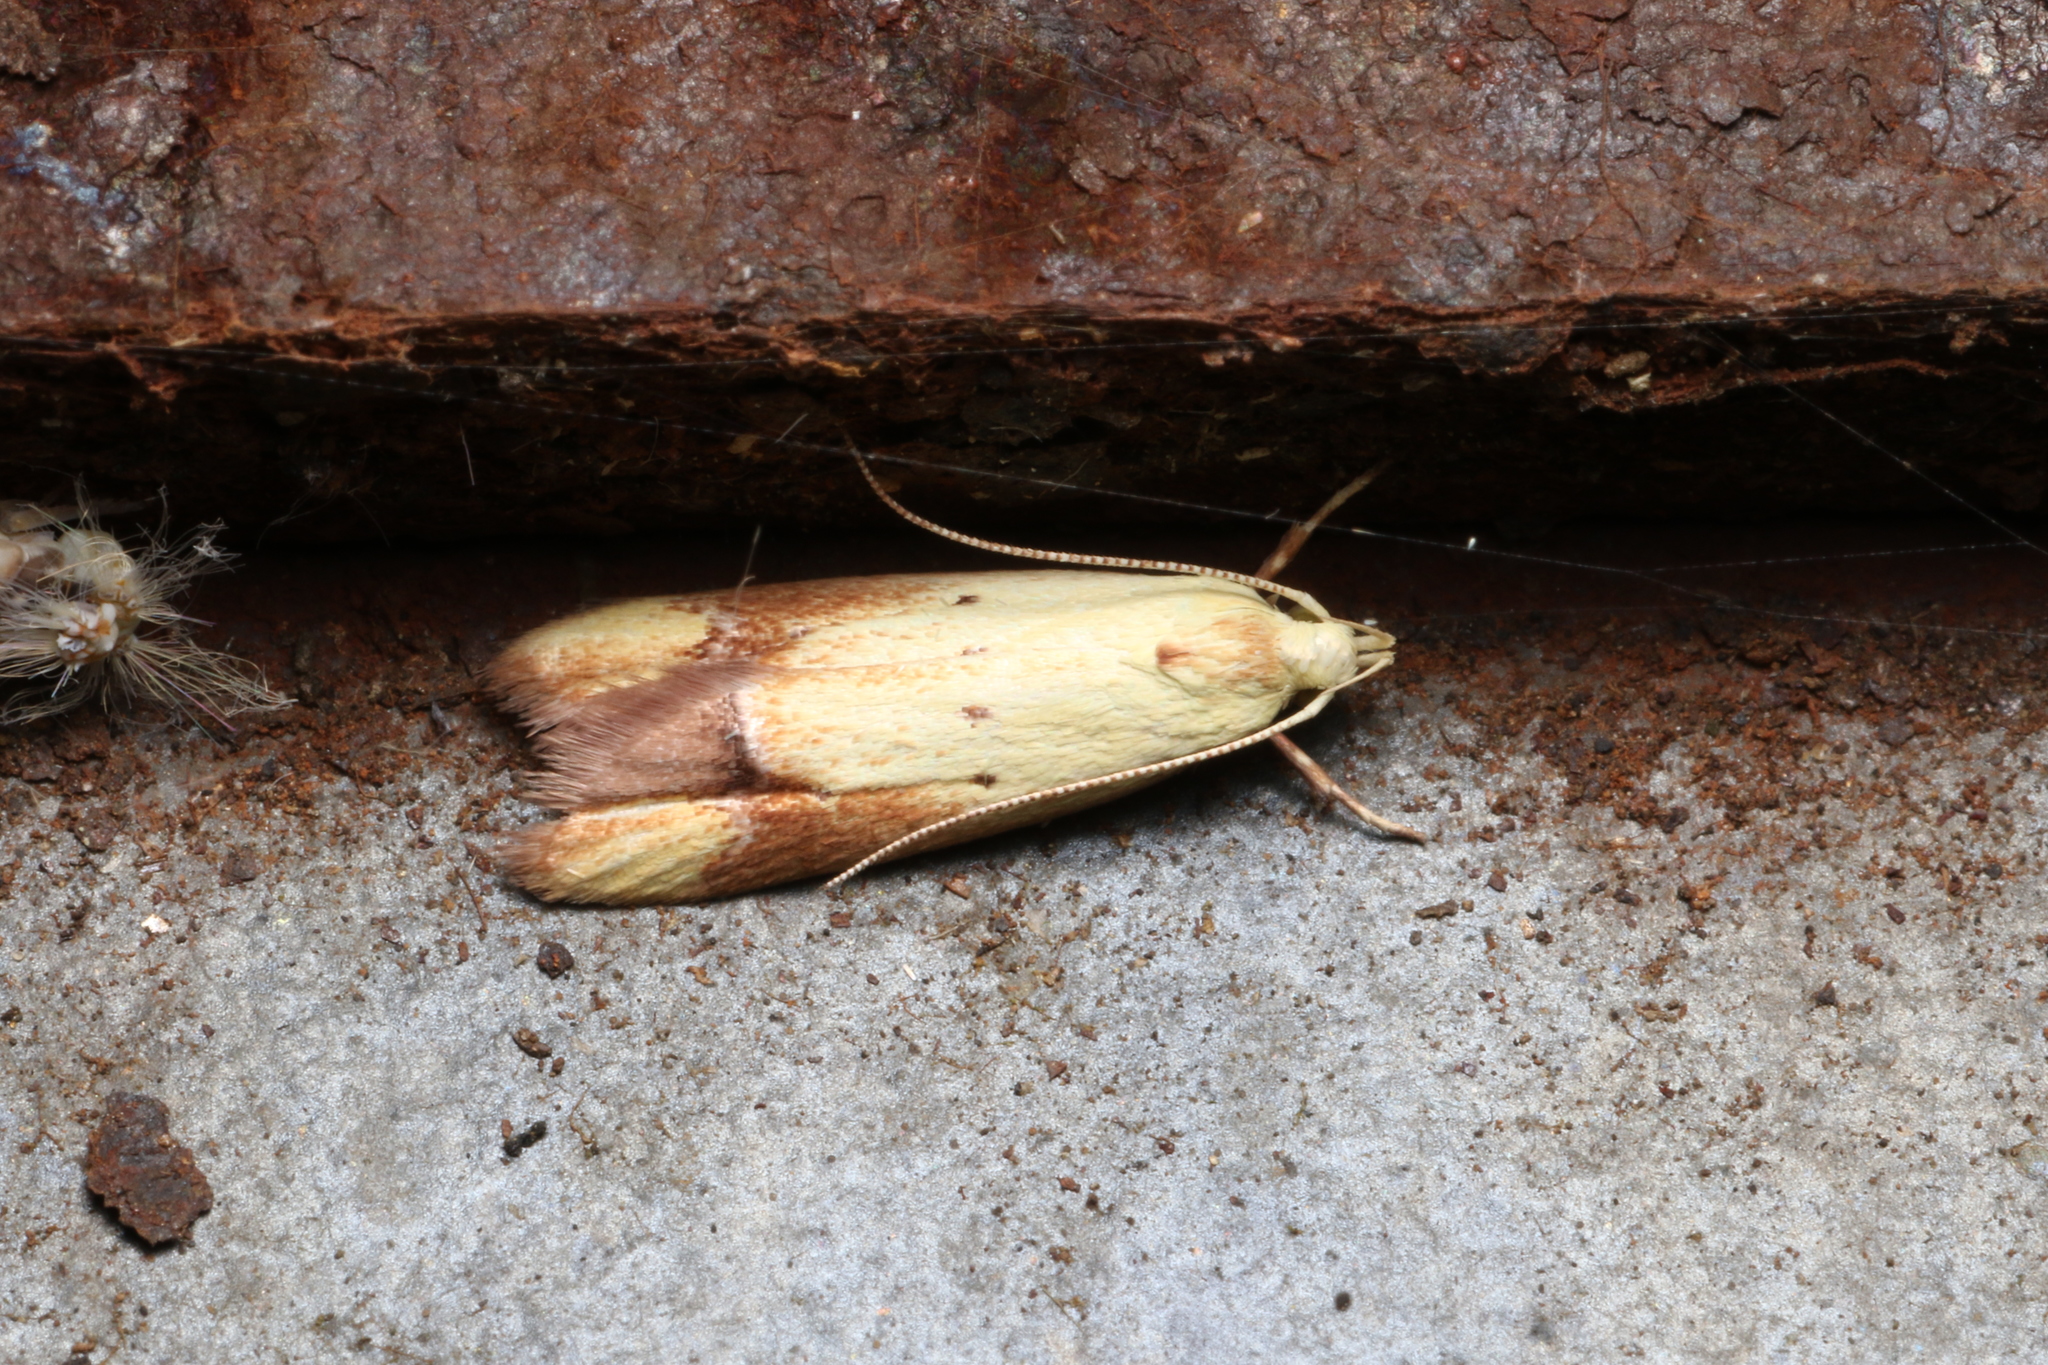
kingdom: Animalia
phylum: Arthropoda
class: Insecta
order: Lepidoptera
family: Oecophoridae
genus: Gymnobathra
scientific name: Gymnobathra flavidella
